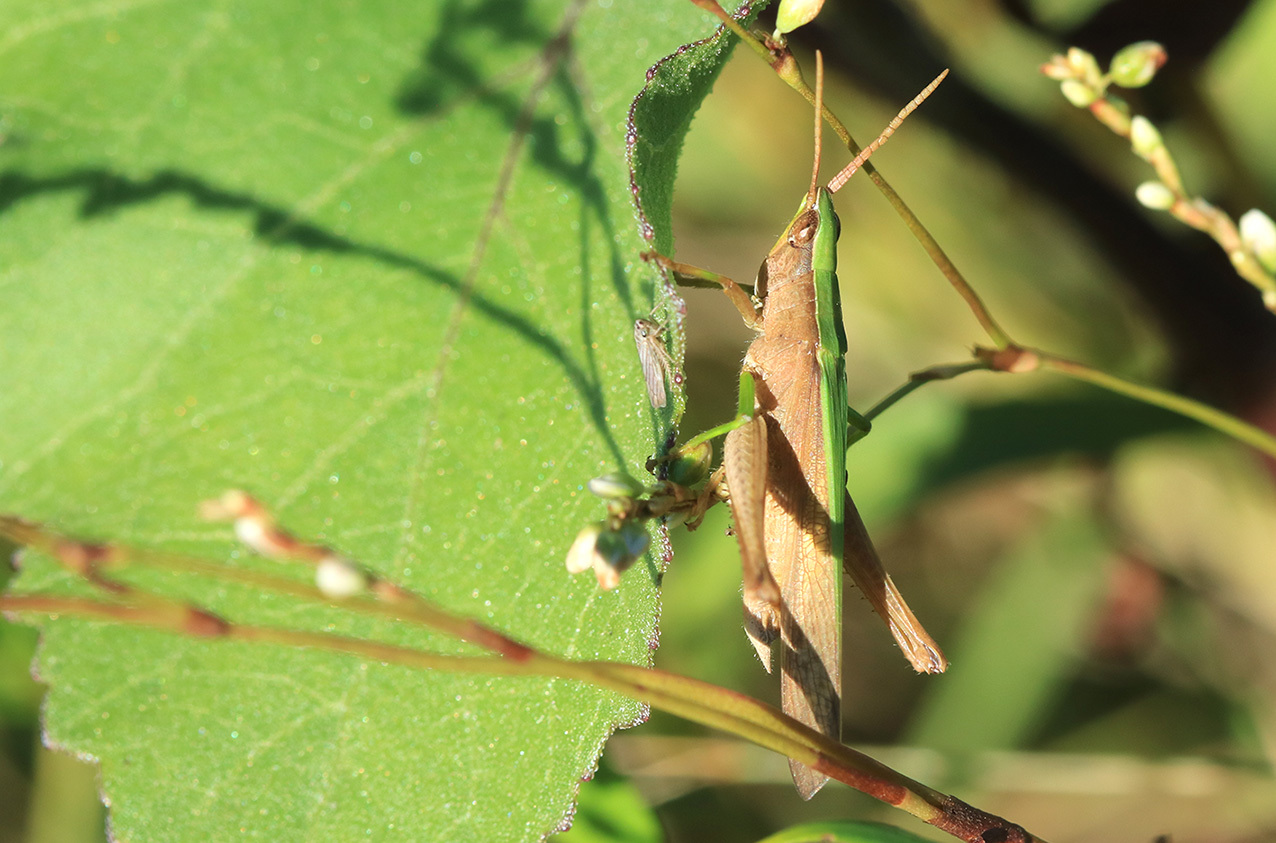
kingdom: Animalia
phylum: Arthropoda
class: Insecta
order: Orthoptera
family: Acrididae
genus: Metaleptea
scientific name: Metaleptea adspersa
